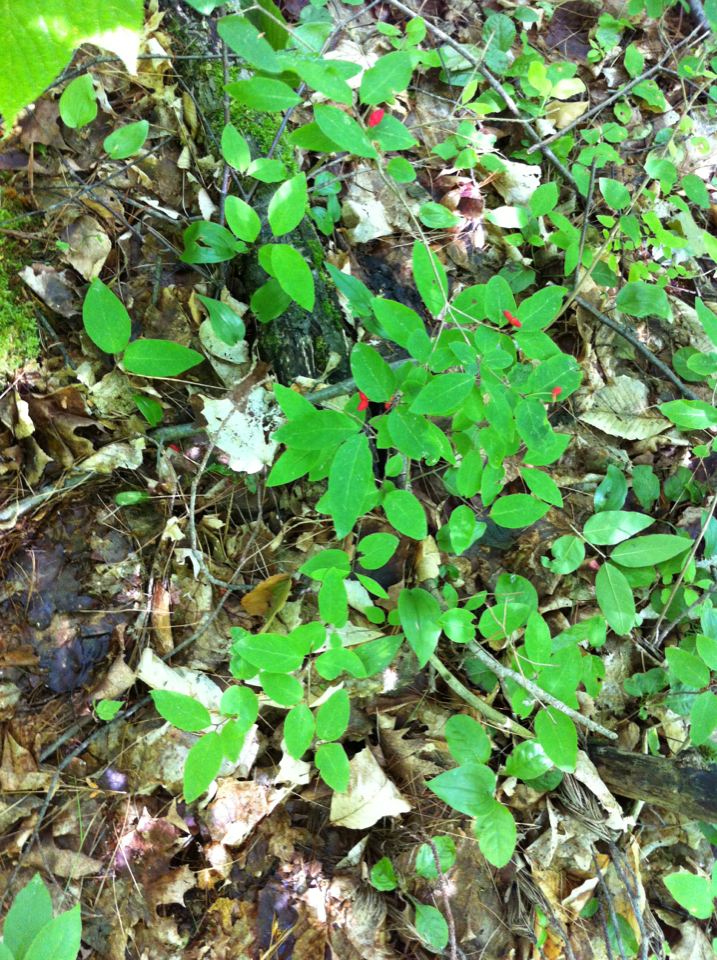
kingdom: Plantae
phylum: Tracheophyta
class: Magnoliopsida
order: Dipsacales
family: Caprifoliaceae
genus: Lonicera
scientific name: Lonicera canadensis
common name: American fly-honeysuckle
